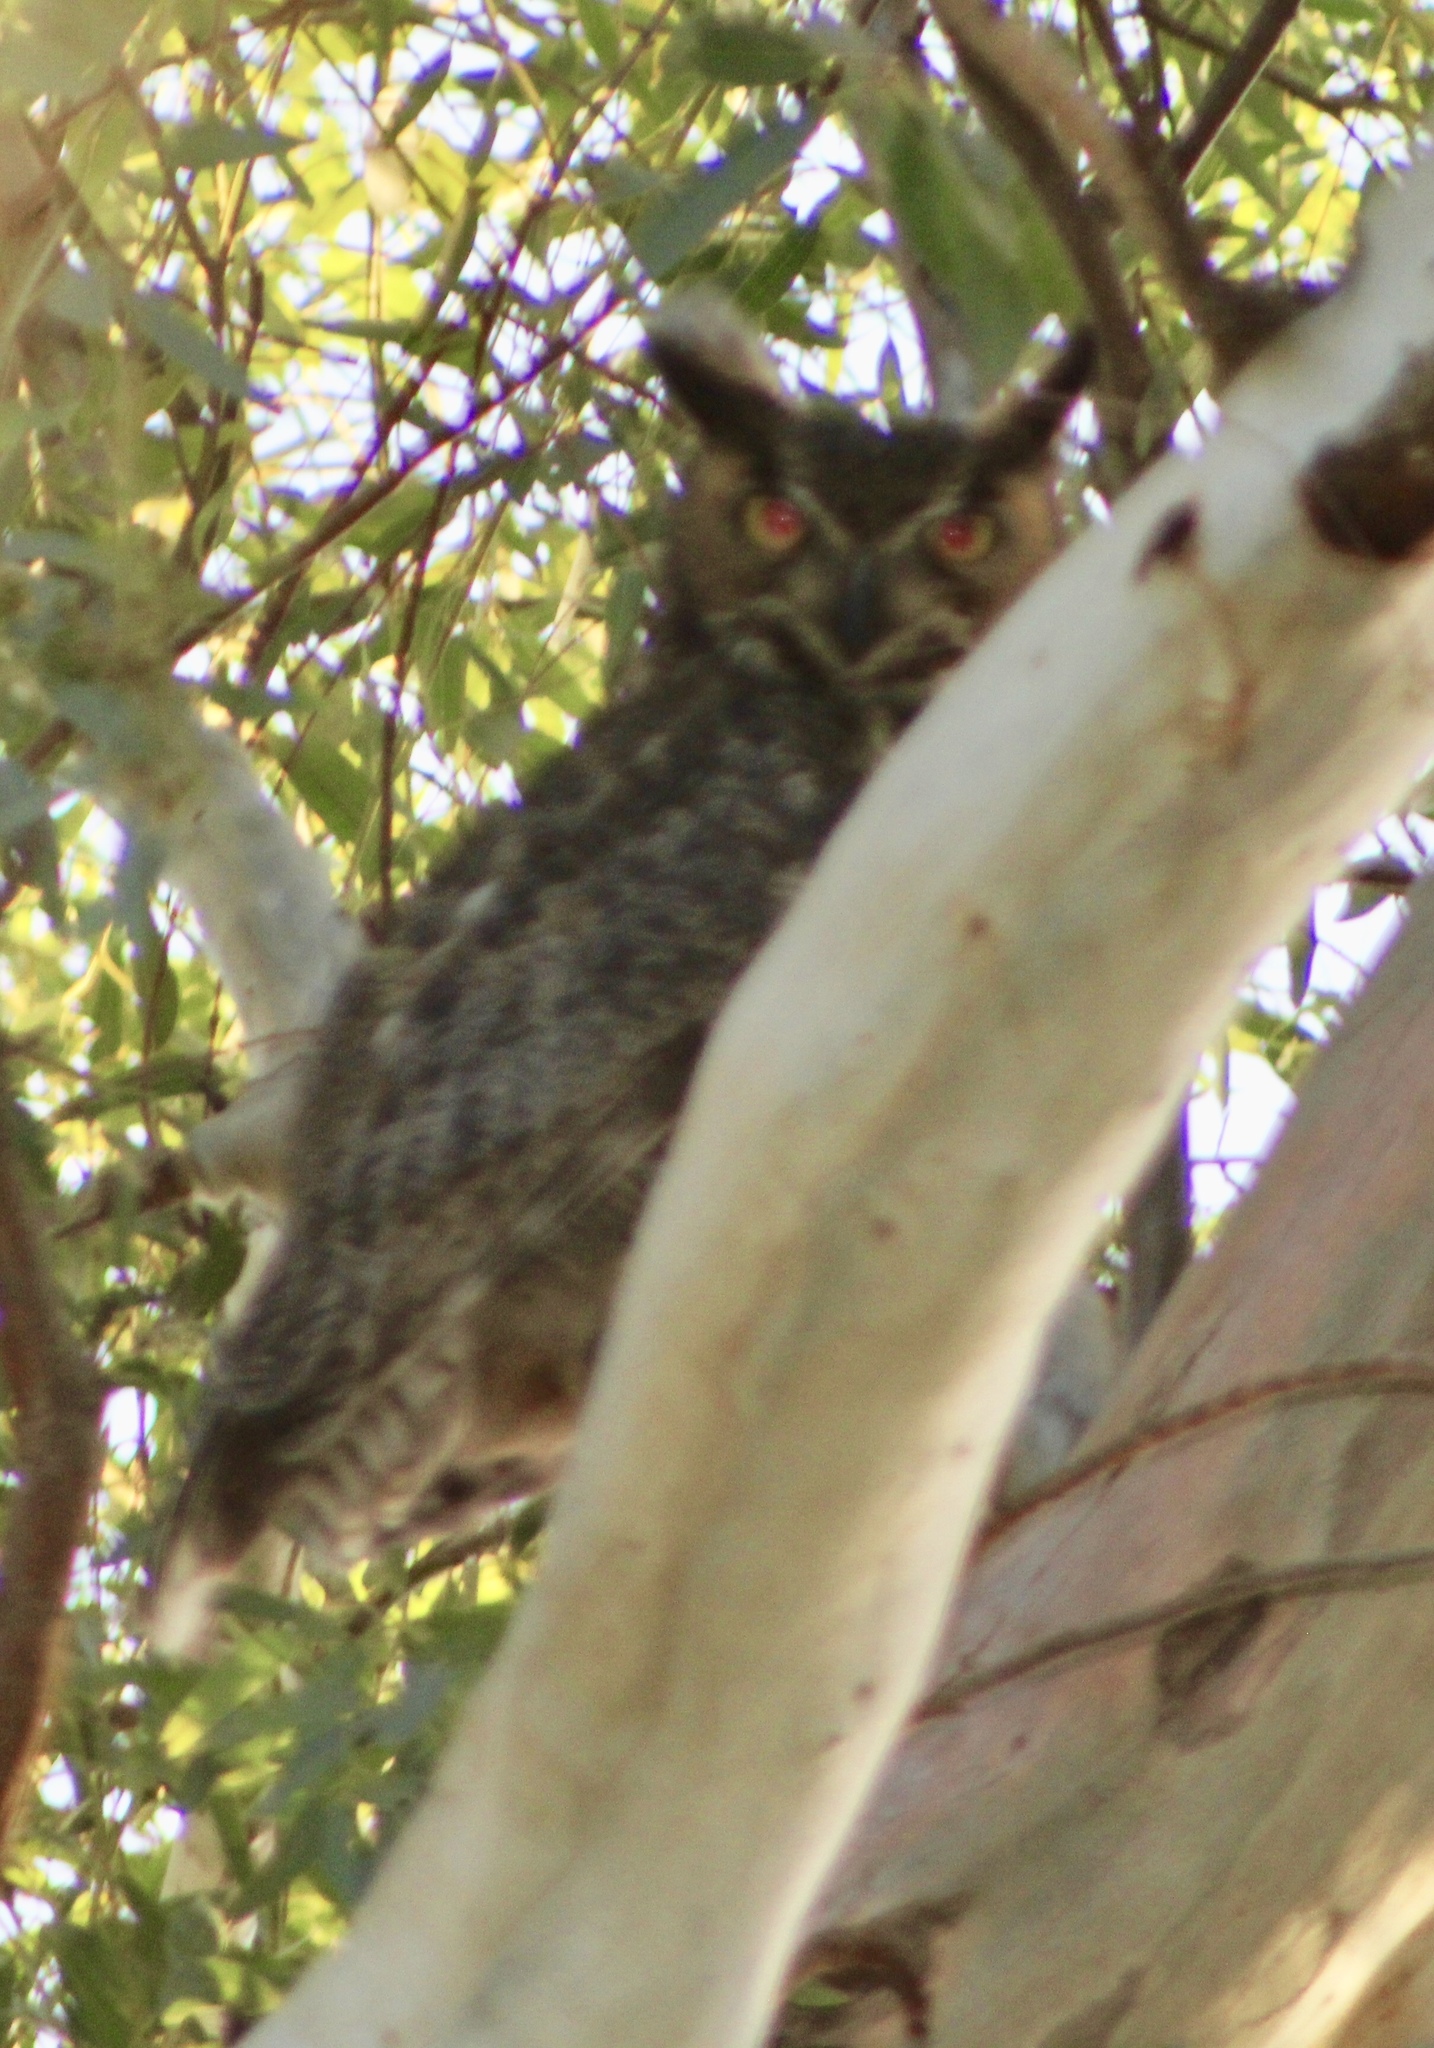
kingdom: Animalia
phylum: Chordata
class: Aves
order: Strigiformes
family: Strigidae
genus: Bubo
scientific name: Bubo virginianus
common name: Great horned owl
